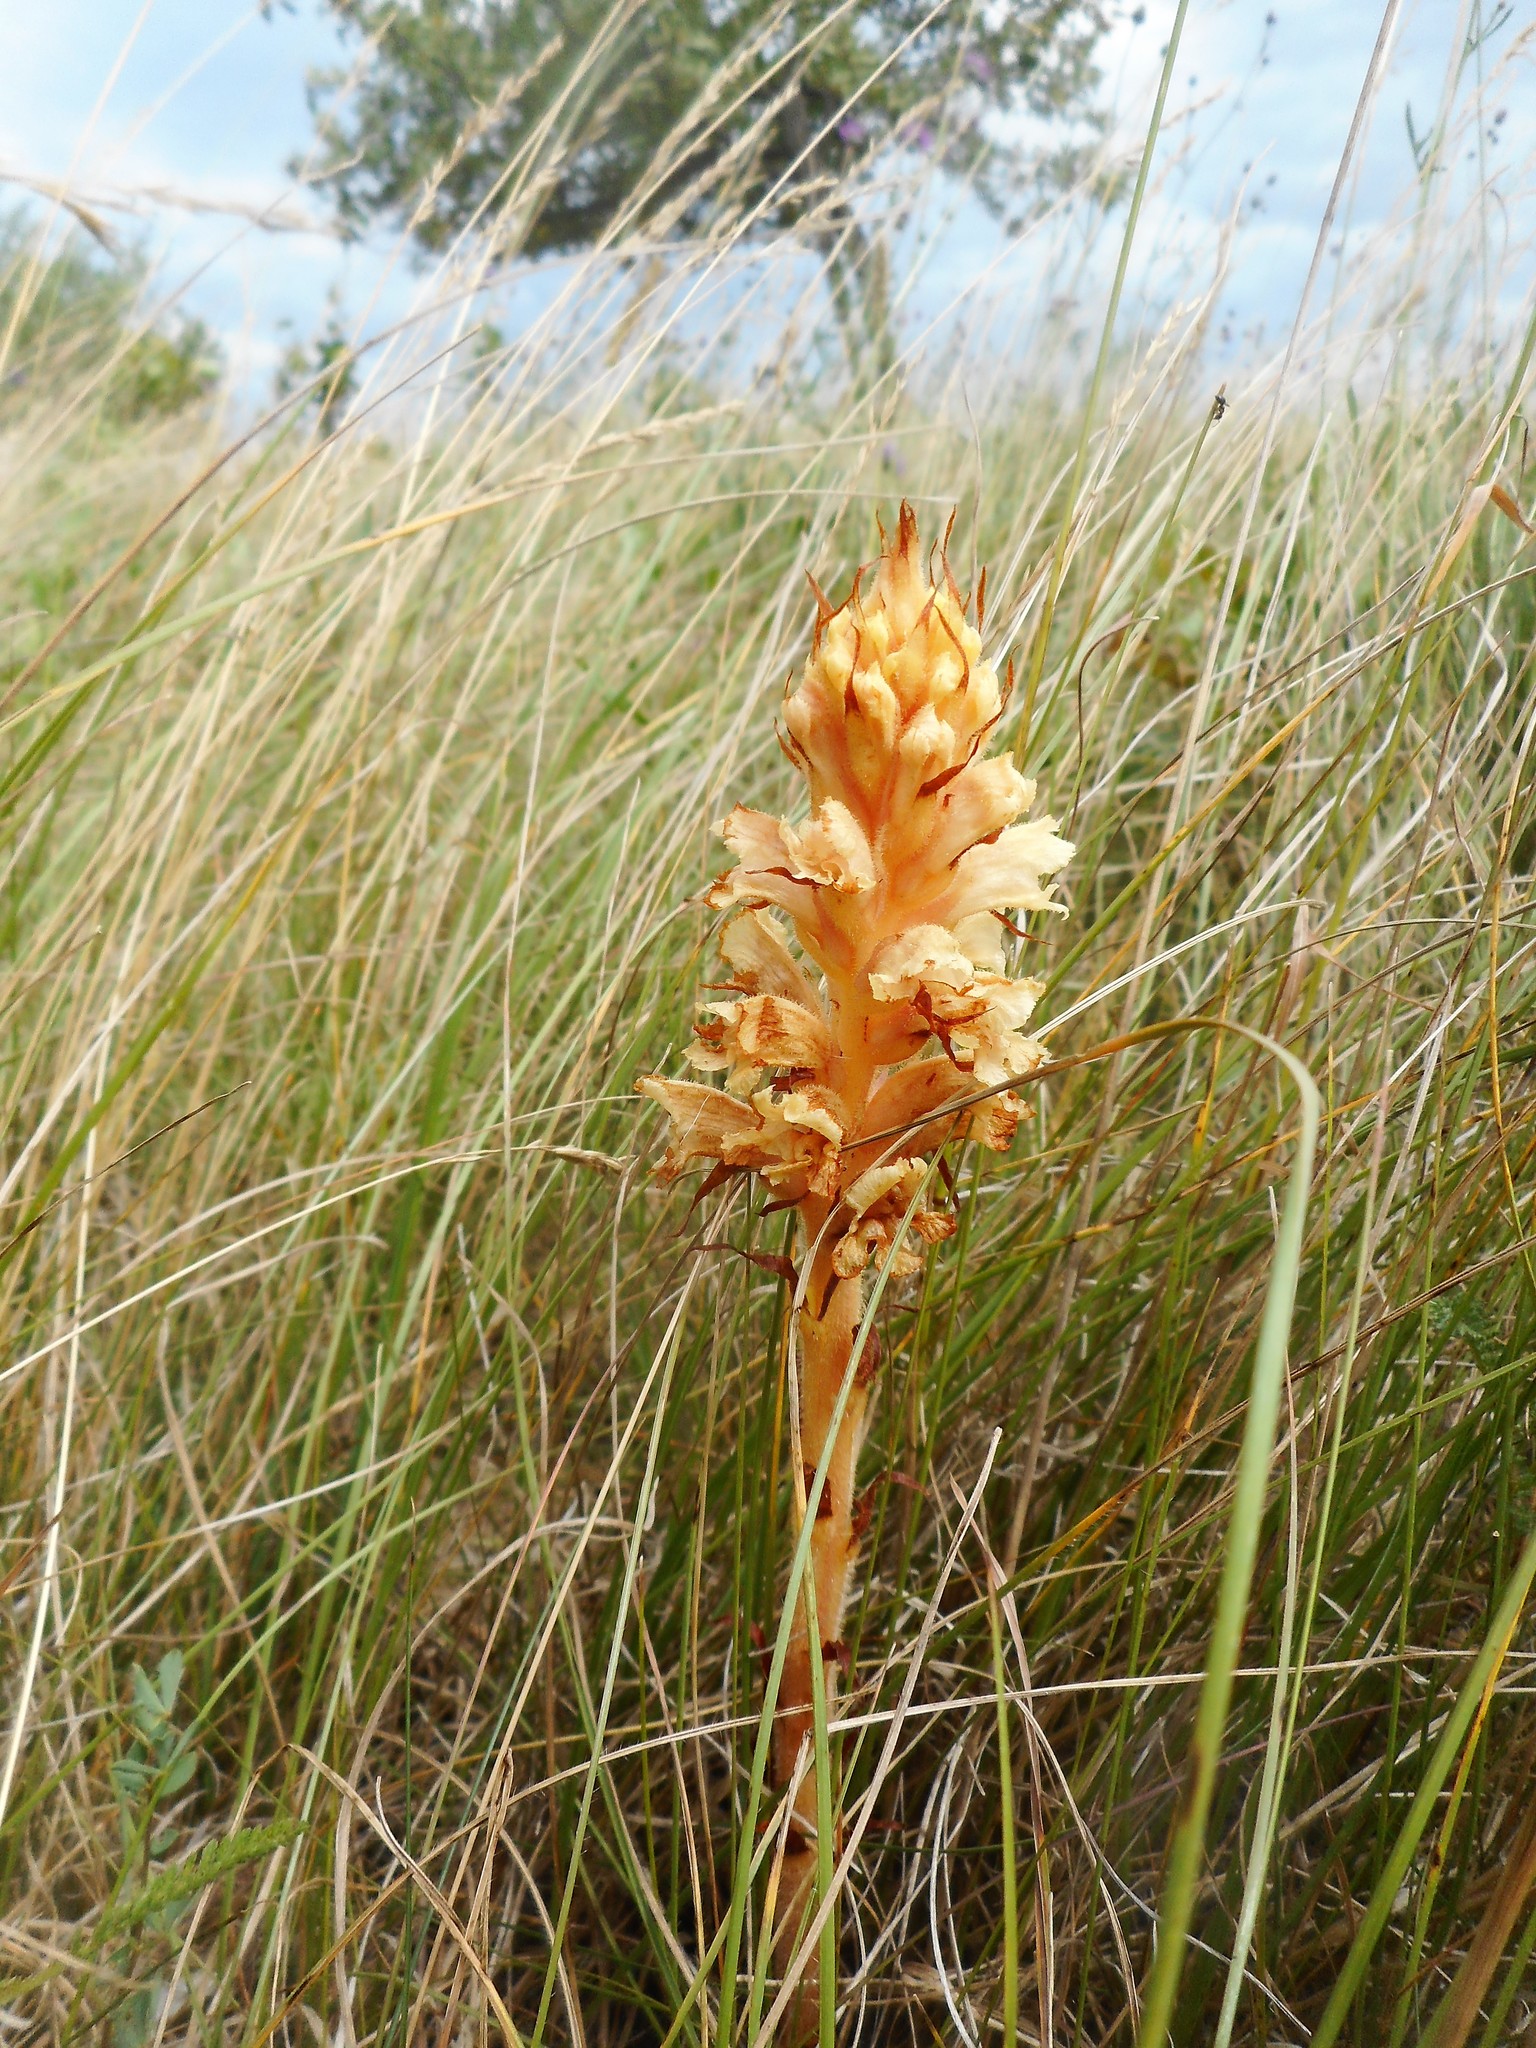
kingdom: Plantae
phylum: Tracheophyta
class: Magnoliopsida
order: Lamiales
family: Orobanchaceae
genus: Orobanche
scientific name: Orobanche centaurina
